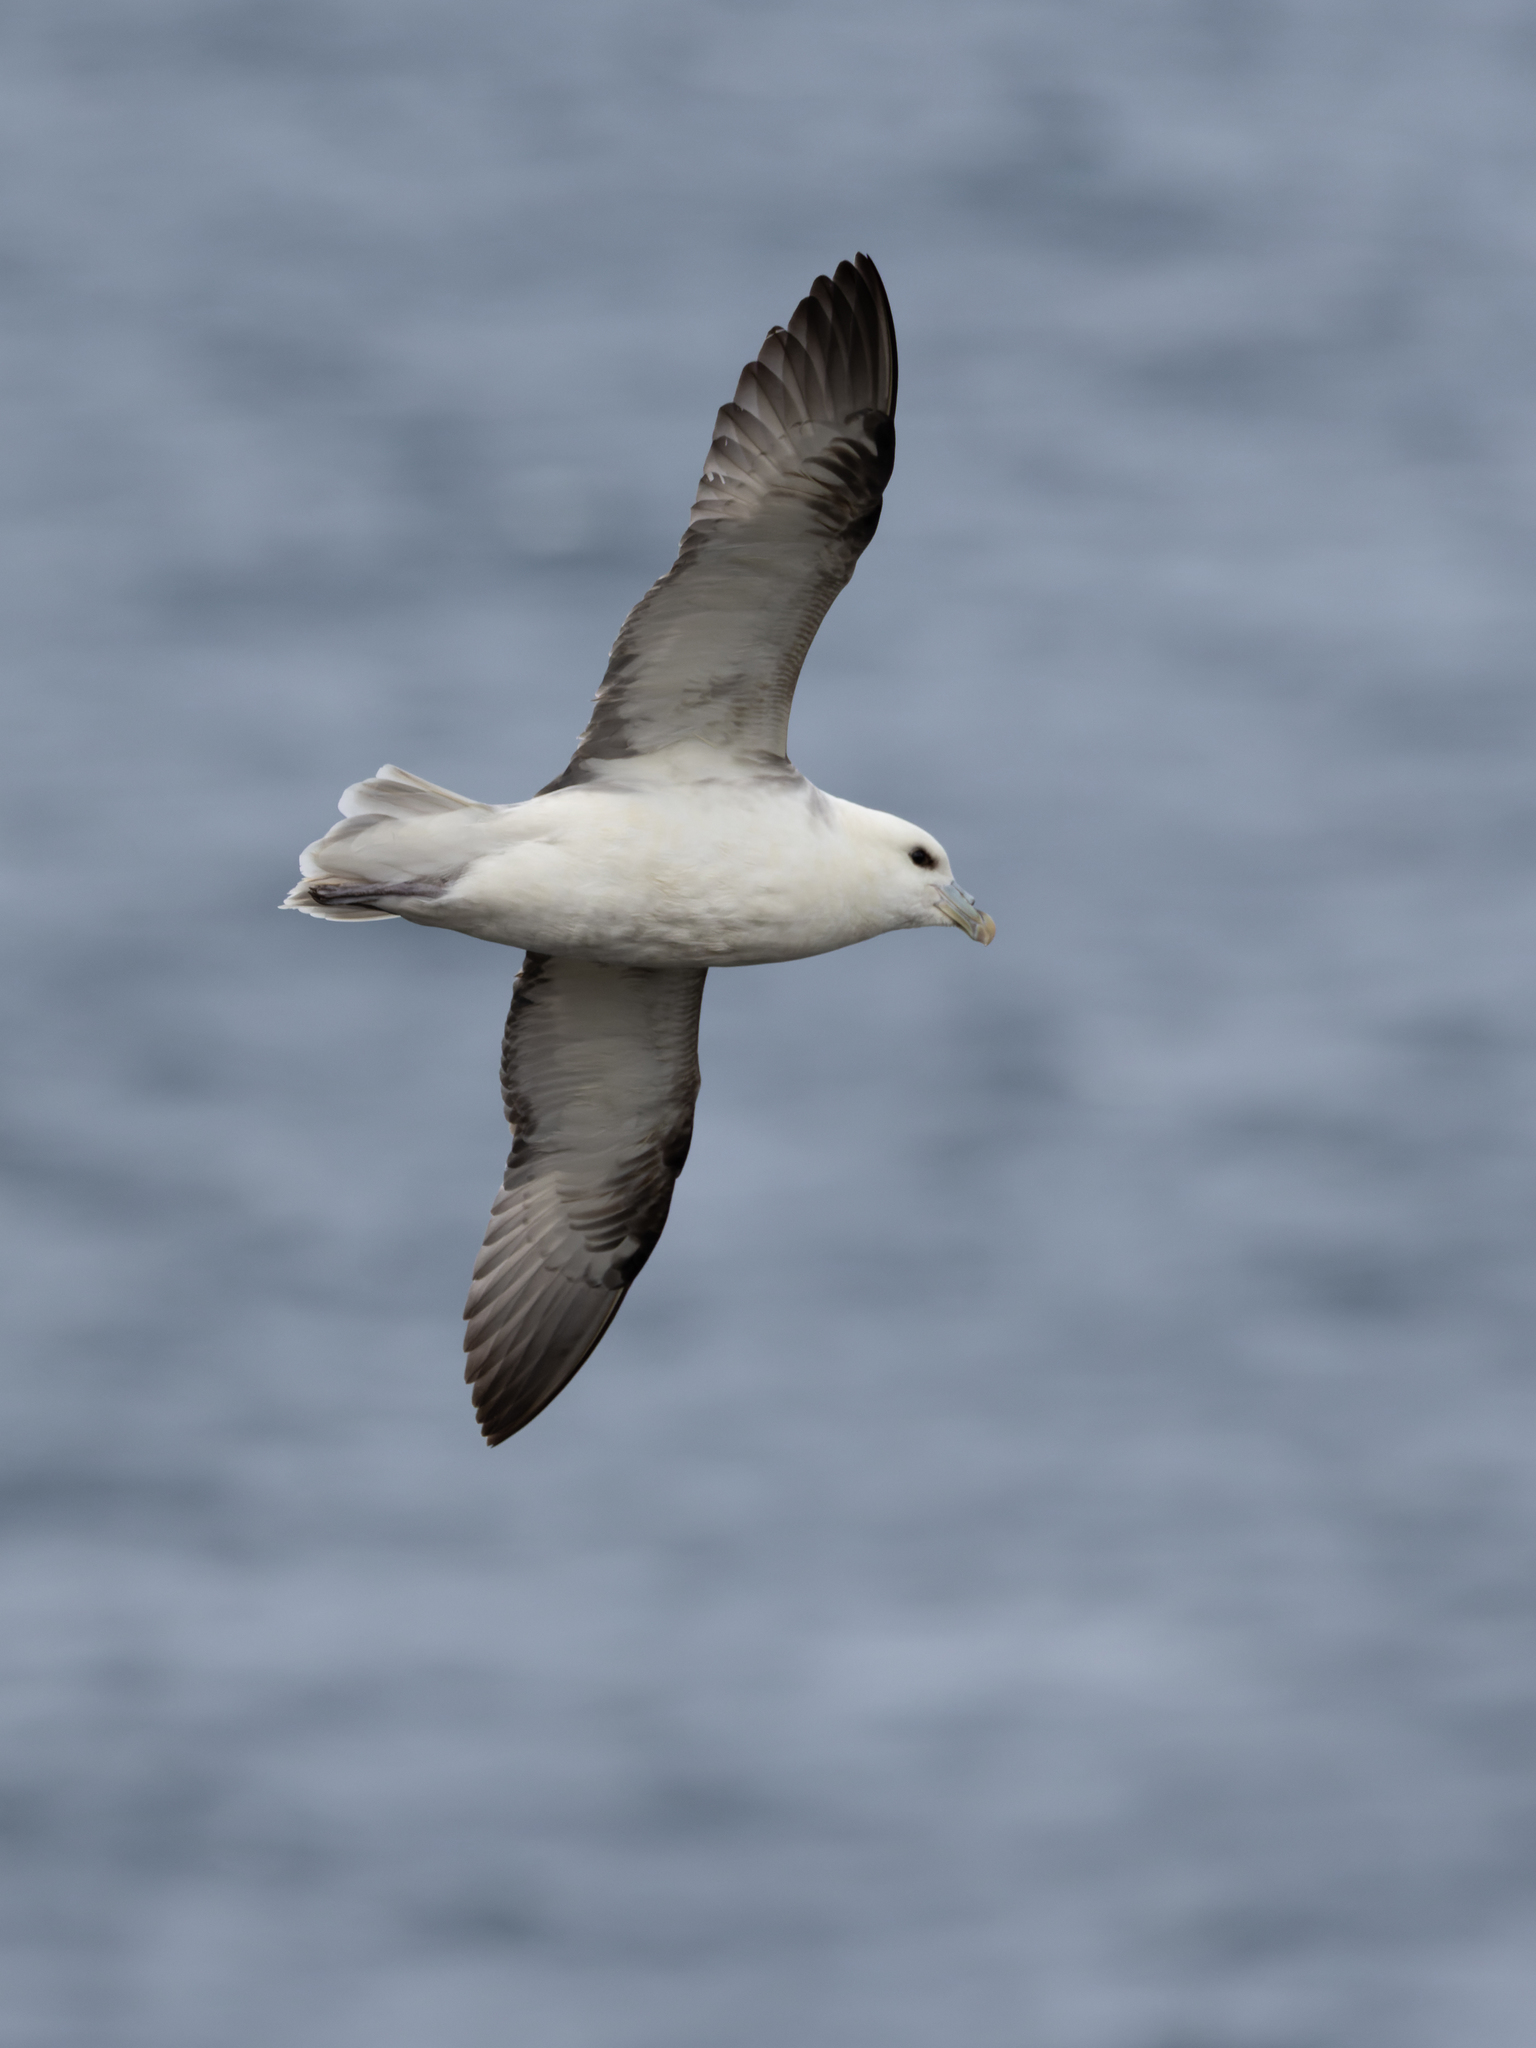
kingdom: Animalia
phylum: Chordata
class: Aves
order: Procellariiformes
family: Procellariidae
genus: Fulmarus
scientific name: Fulmarus glacialis
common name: Northern fulmar
